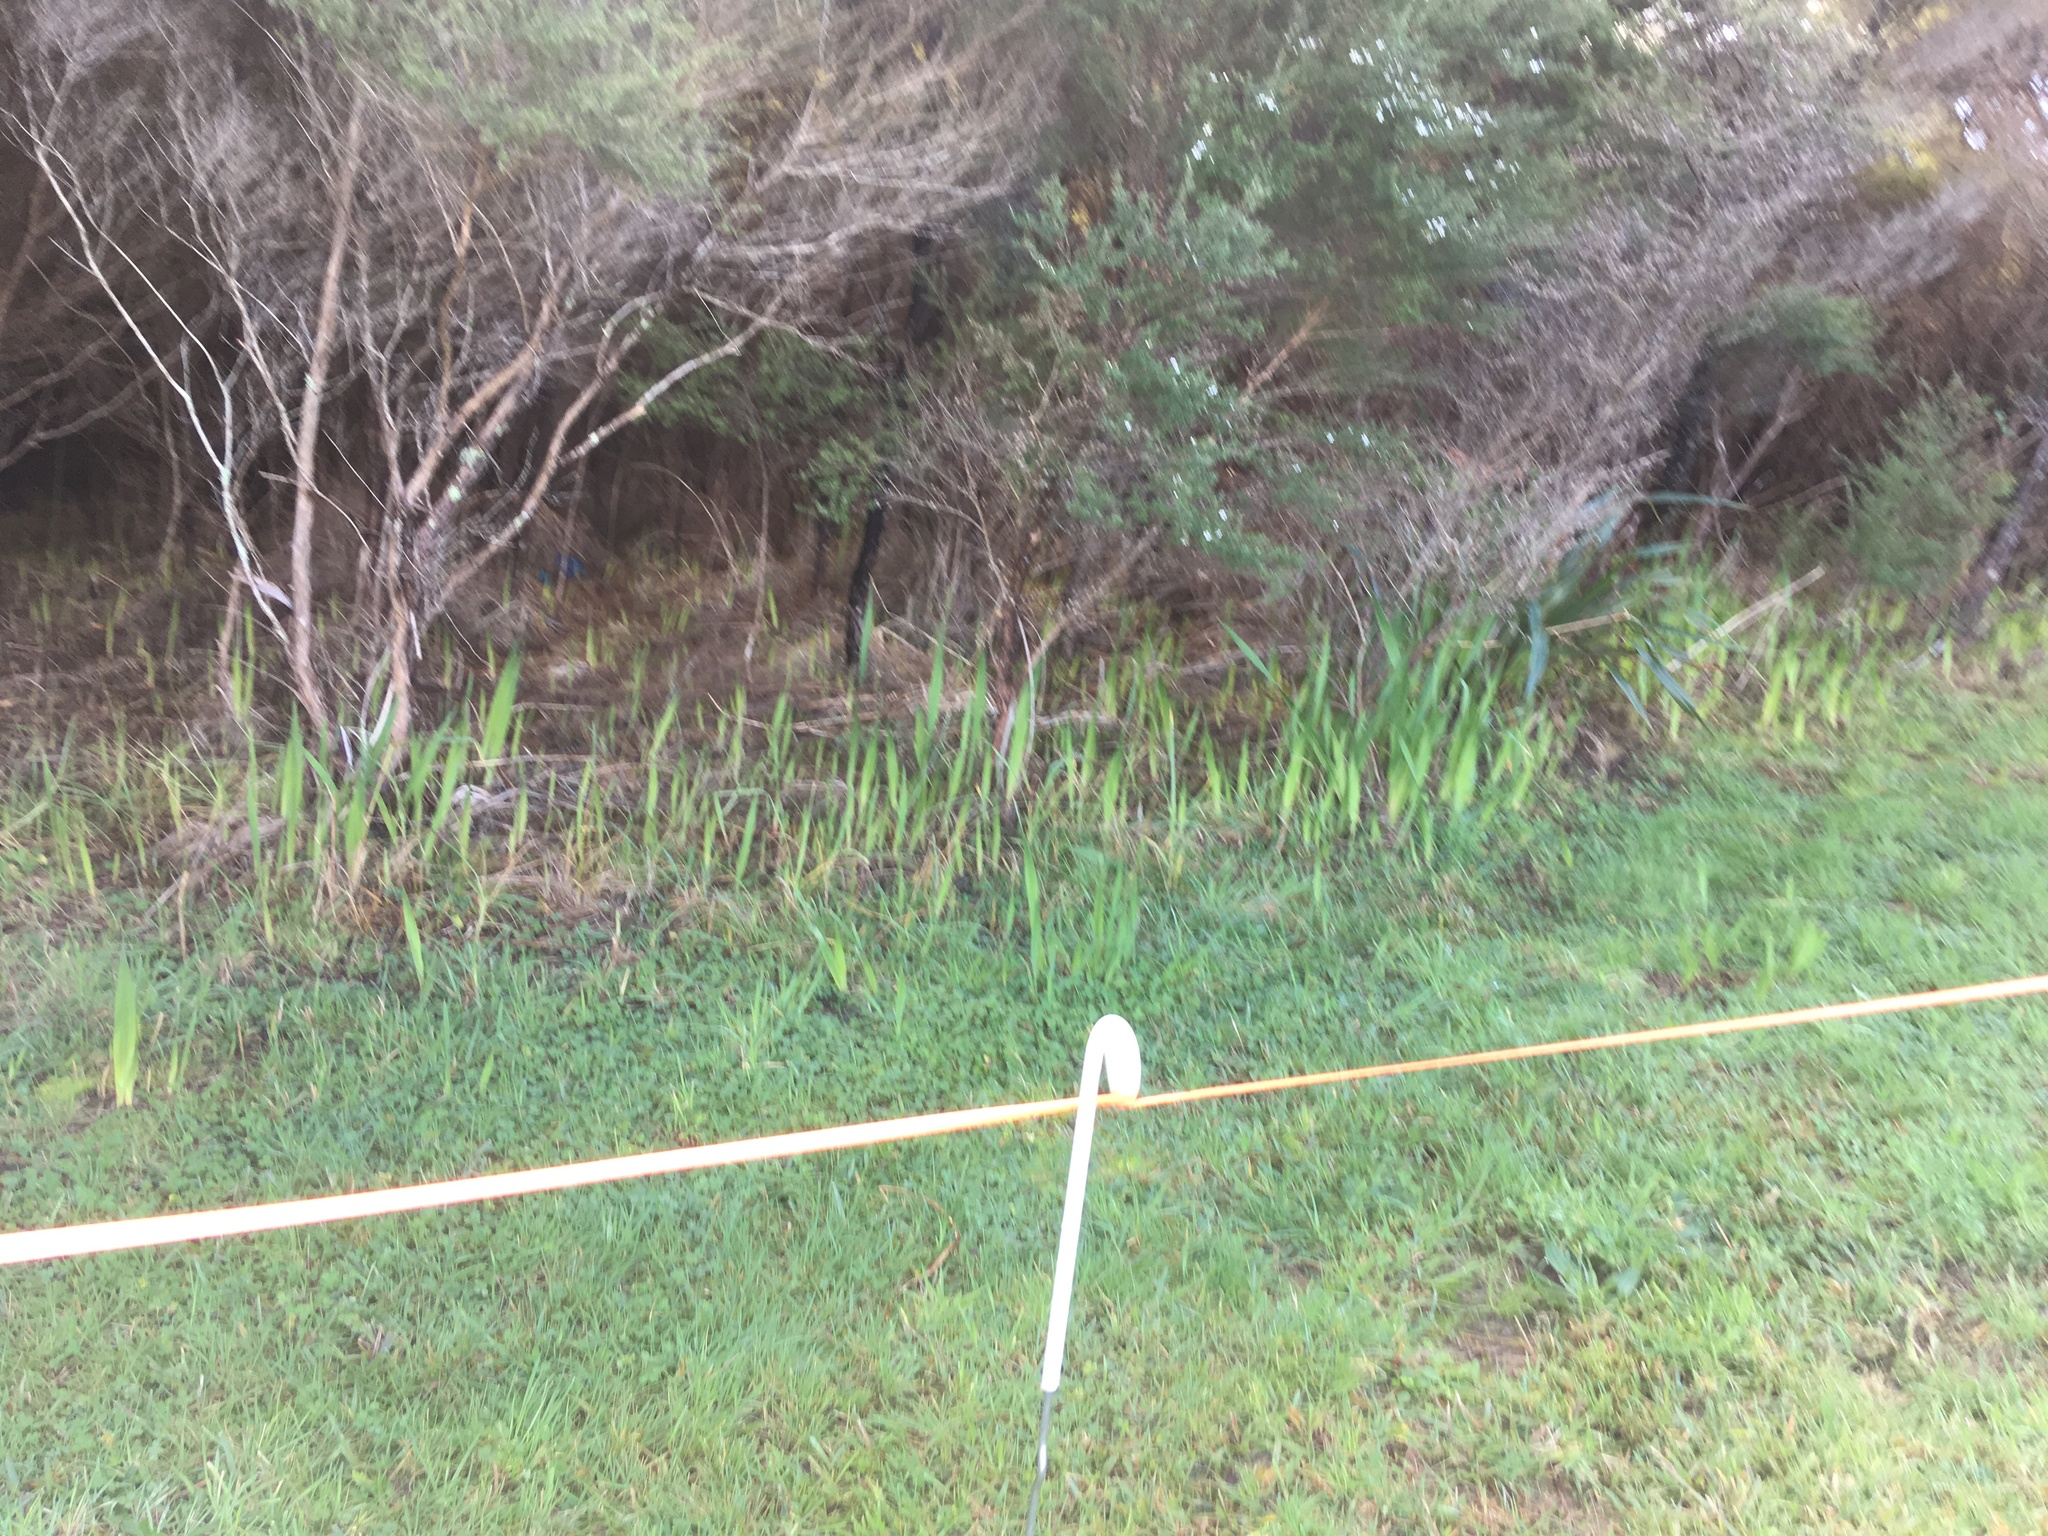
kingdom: Plantae
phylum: Tracheophyta
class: Magnoliopsida
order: Myrtales
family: Myrtaceae
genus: Leptospermum
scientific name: Leptospermum scoparium
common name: Broom tea-tree
